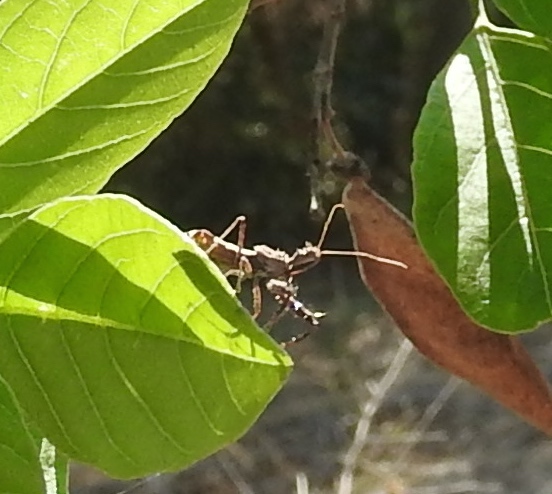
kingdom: Animalia
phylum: Arthropoda
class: Insecta
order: Hemiptera
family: Reduviidae
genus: Sinea
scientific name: Sinea
